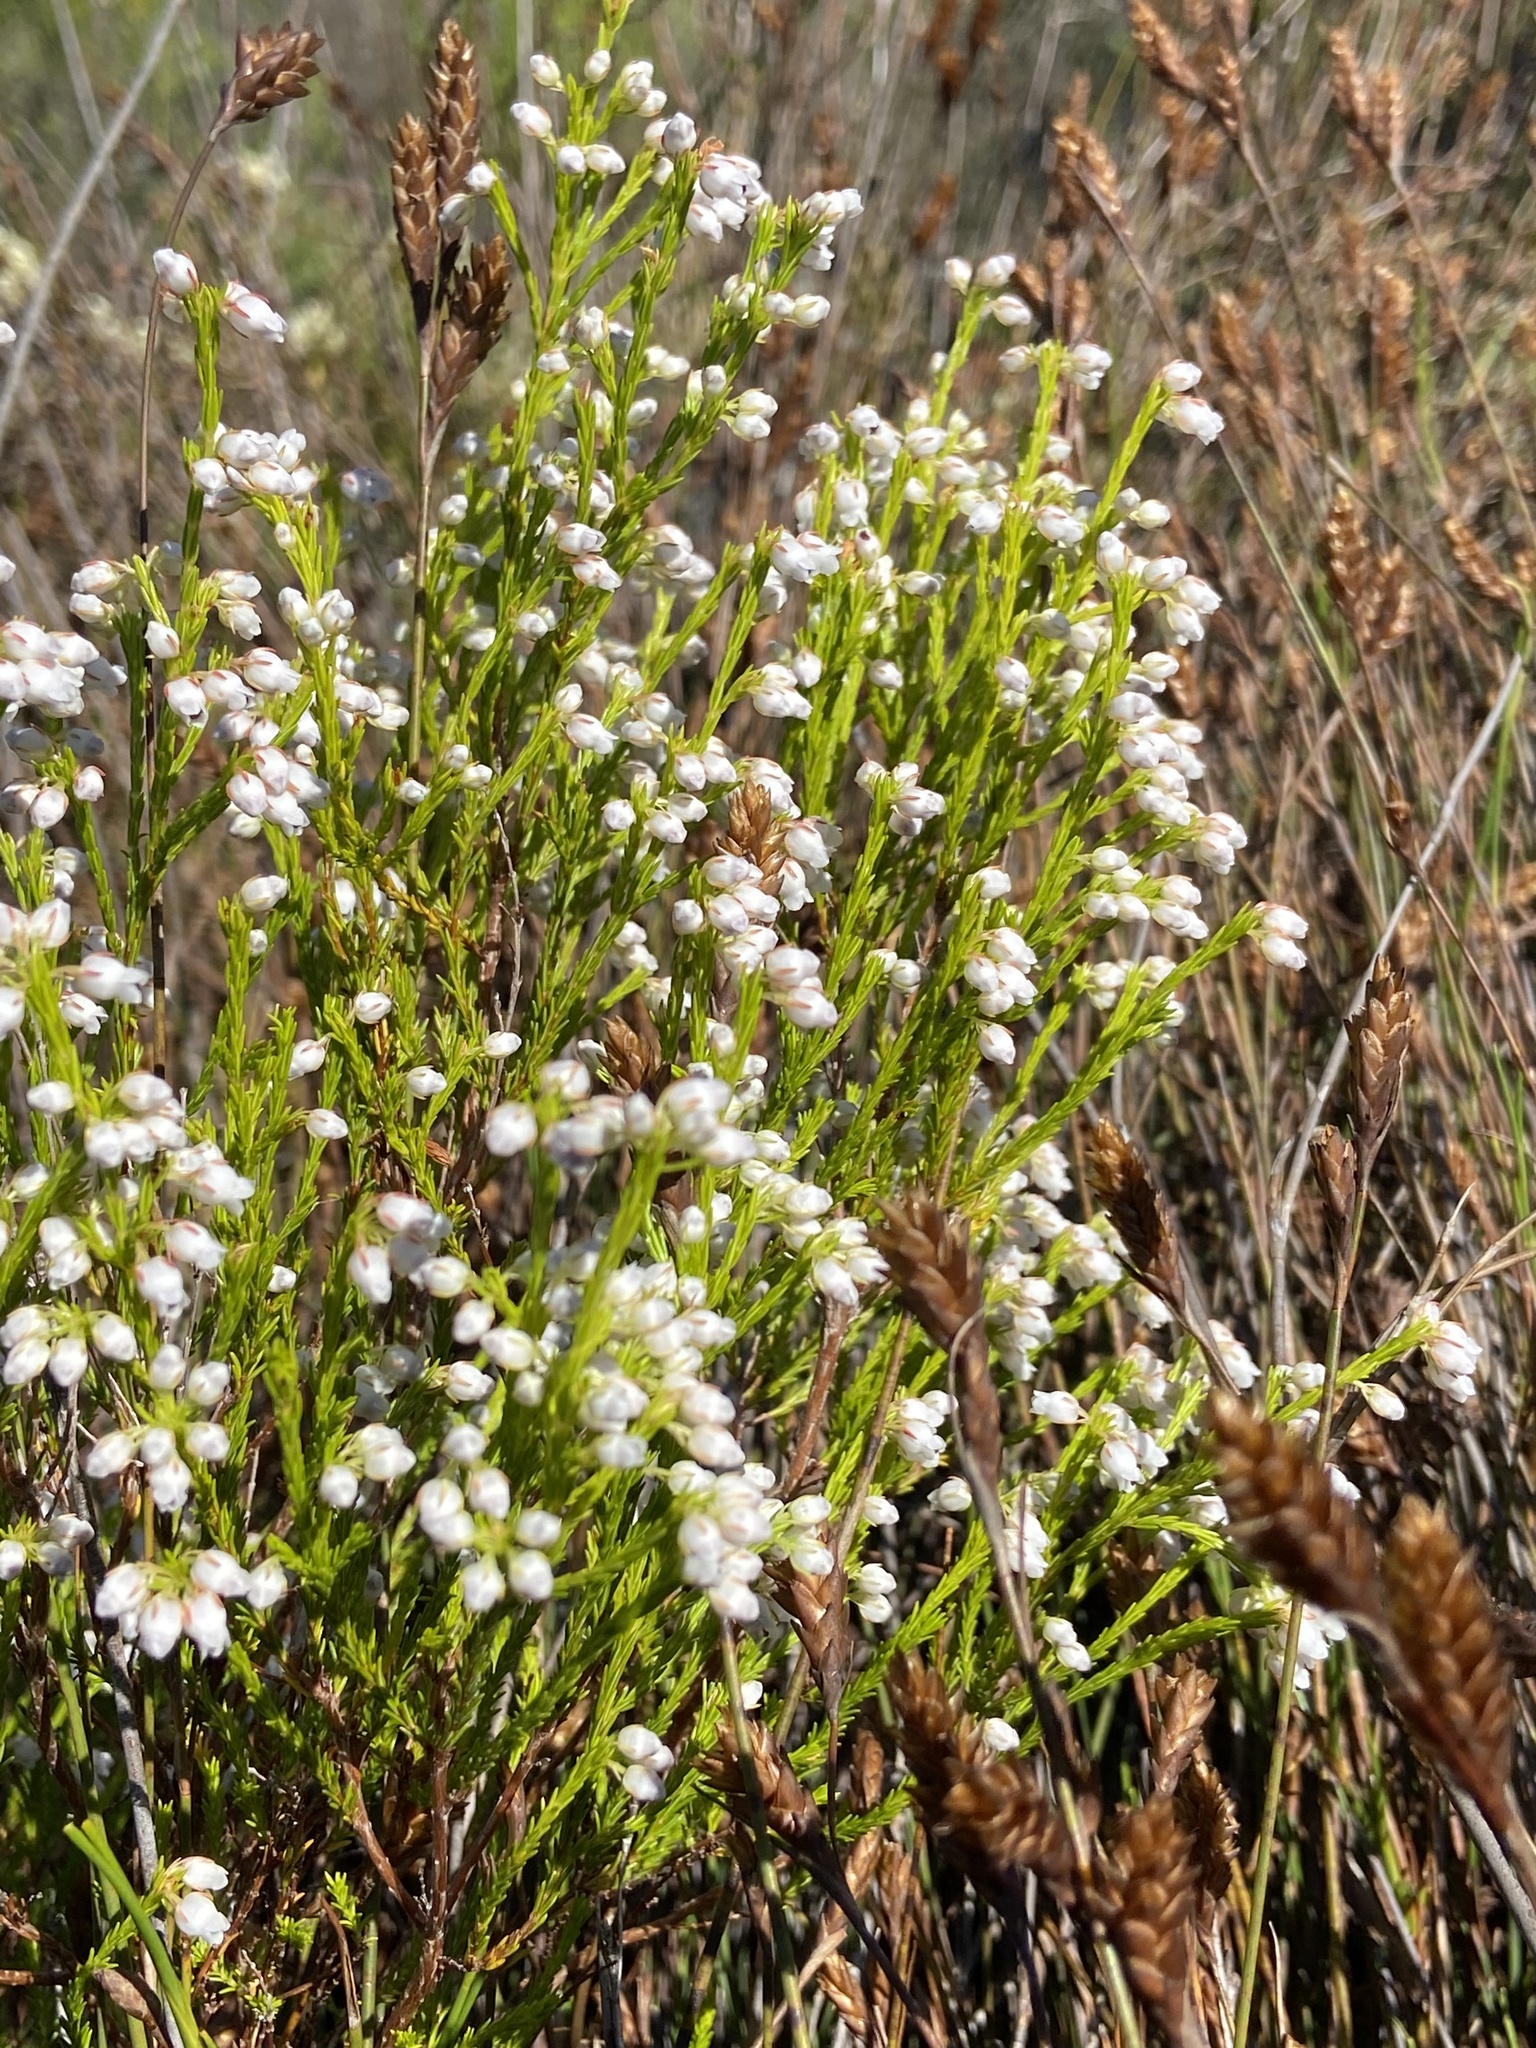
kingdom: Plantae
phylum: Tracheophyta
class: Magnoliopsida
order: Ericales
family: Ericaceae
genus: Erica
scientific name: Erica margaritacea
